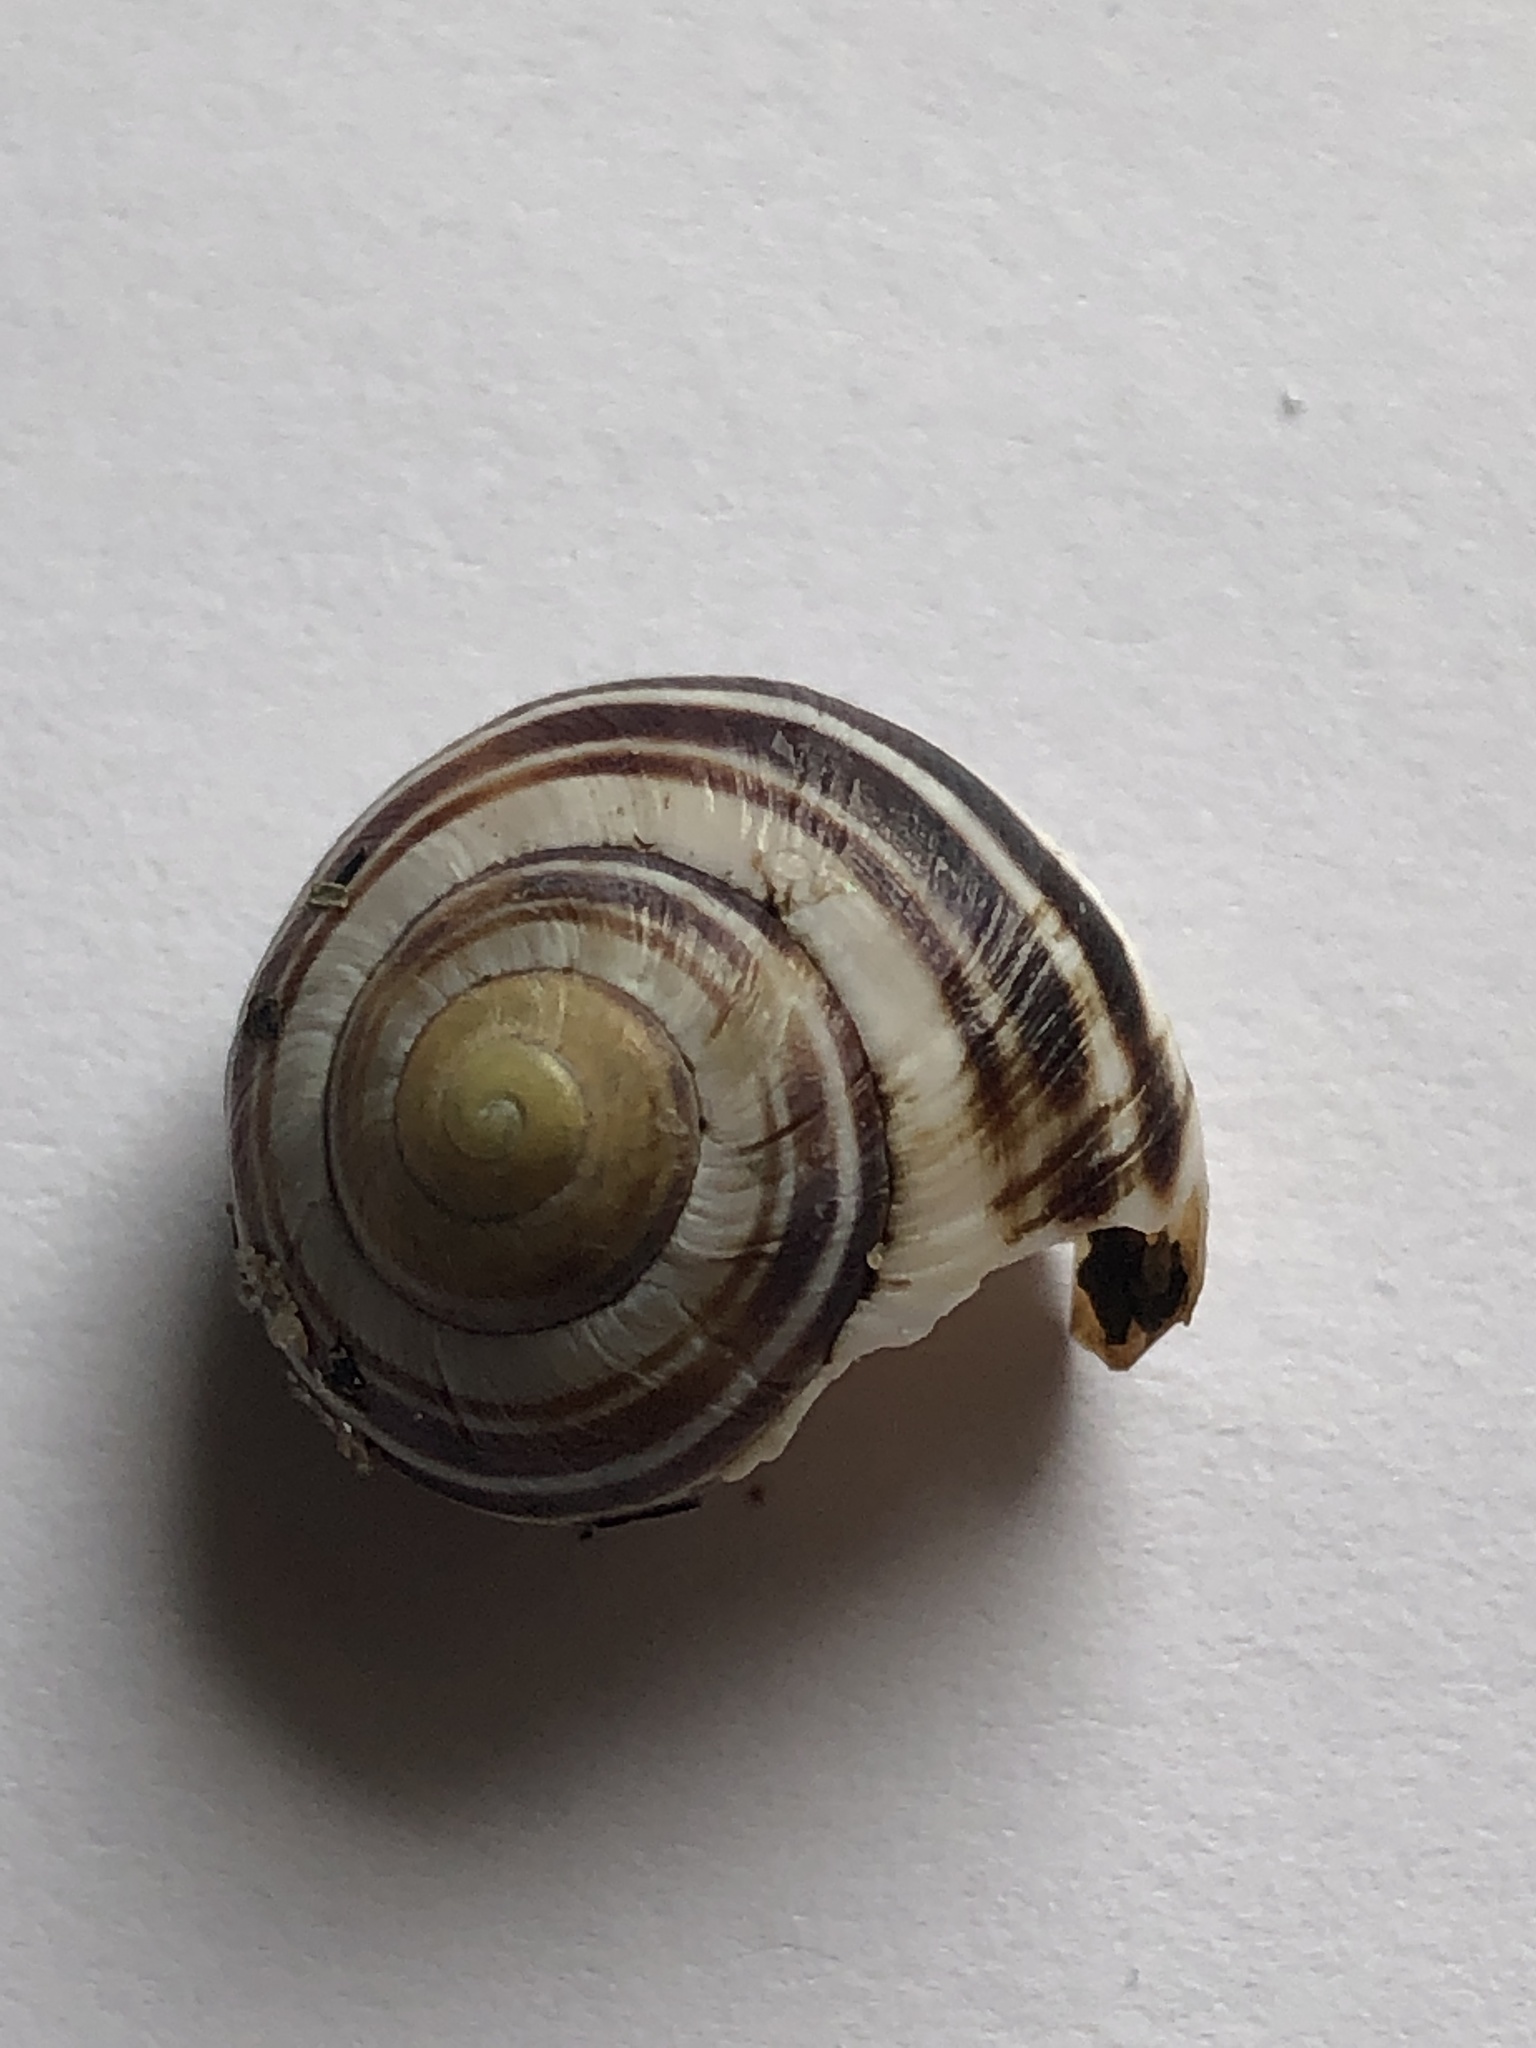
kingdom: Animalia
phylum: Mollusca
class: Gastropoda
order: Stylommatophora
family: Helicidae
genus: Cepaea
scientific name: Cepaea
